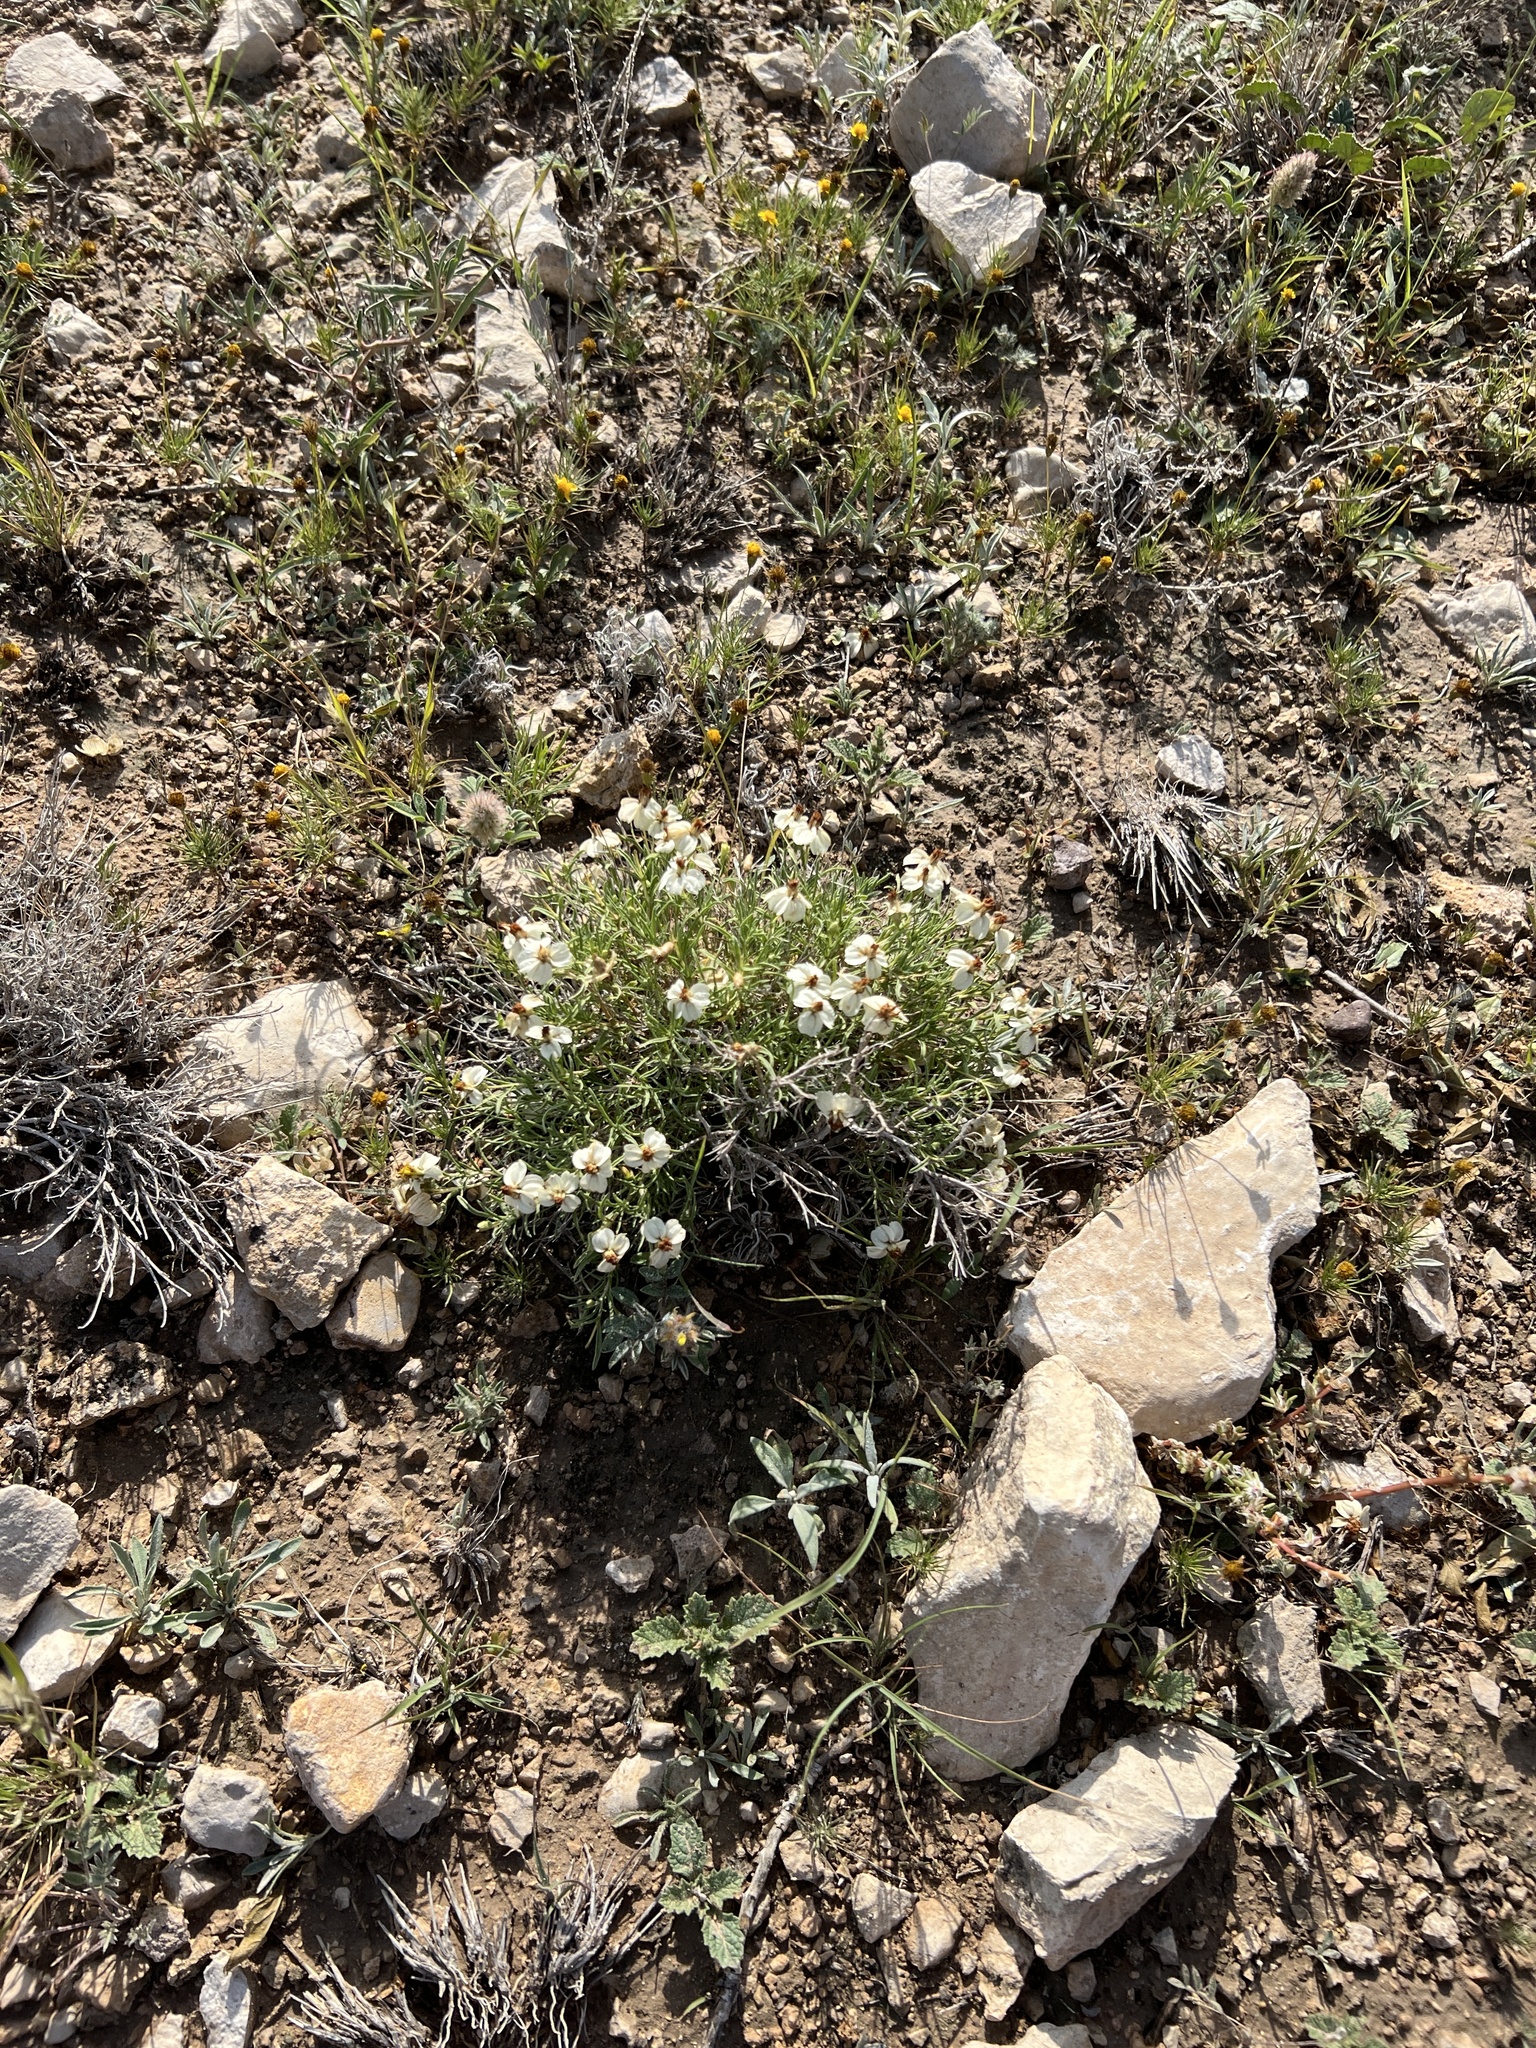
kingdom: Plantae
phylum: Tracheophyta
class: Magnoliopsida
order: Asterales
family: Asteraceae
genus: Zinnia
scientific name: Zinnia acerosa
